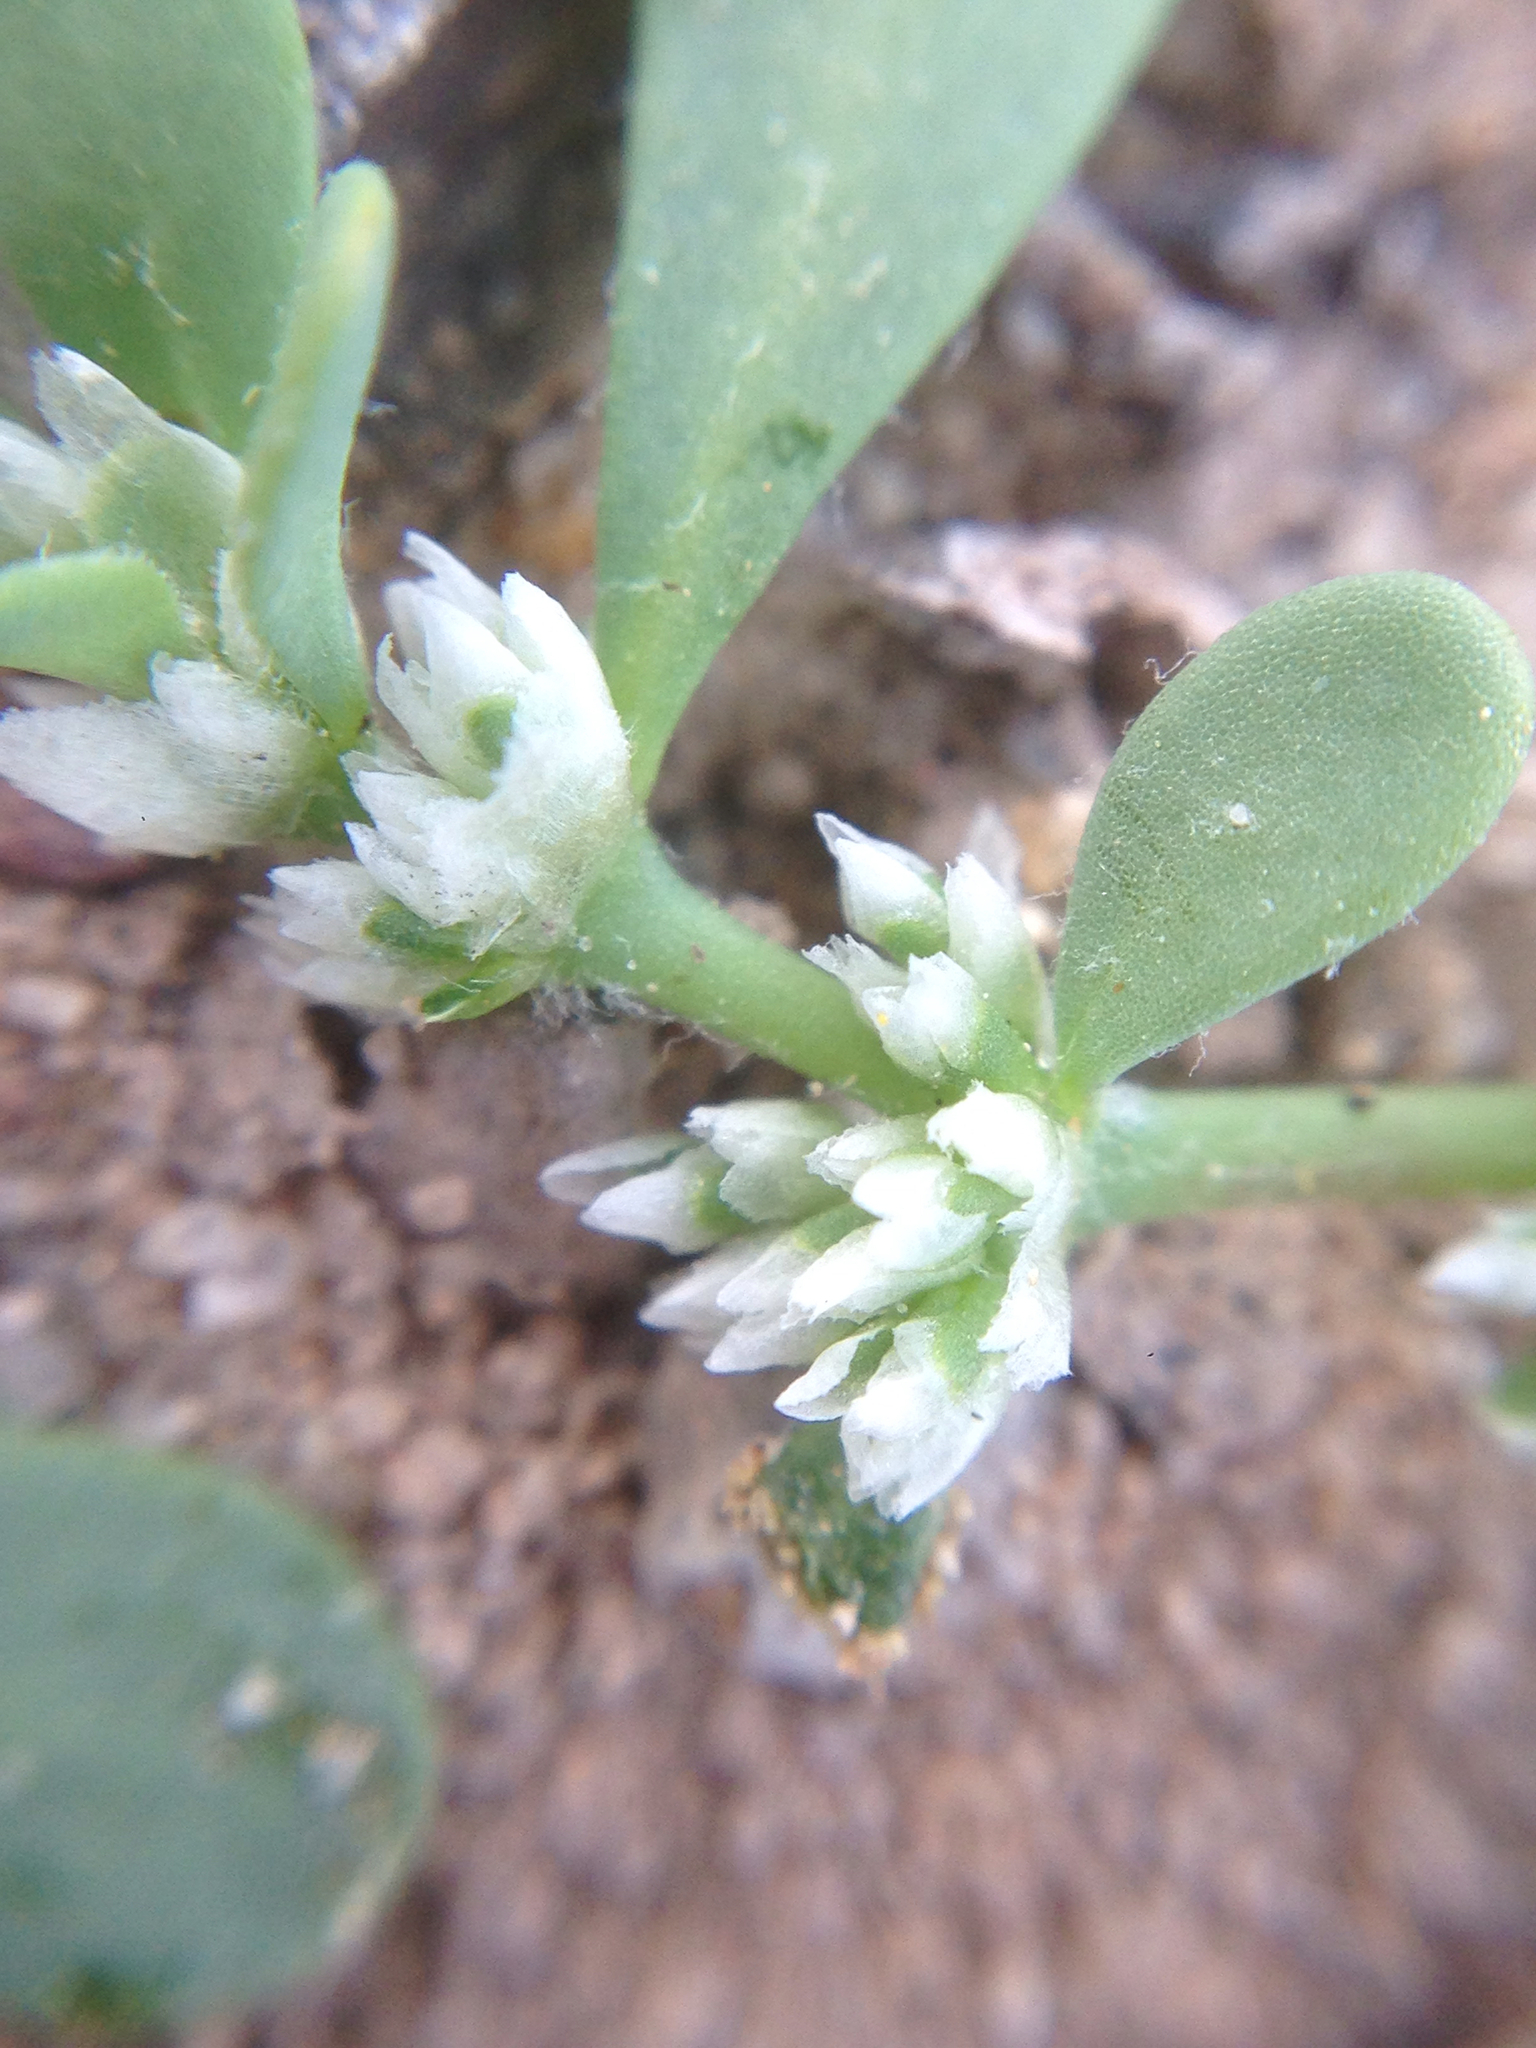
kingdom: Plantae
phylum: Tracheophyta
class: Magnoliopsida
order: Caryophyllales
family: Caryophyllaceae
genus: Achyronychia
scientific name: Achyronychia cooperi
